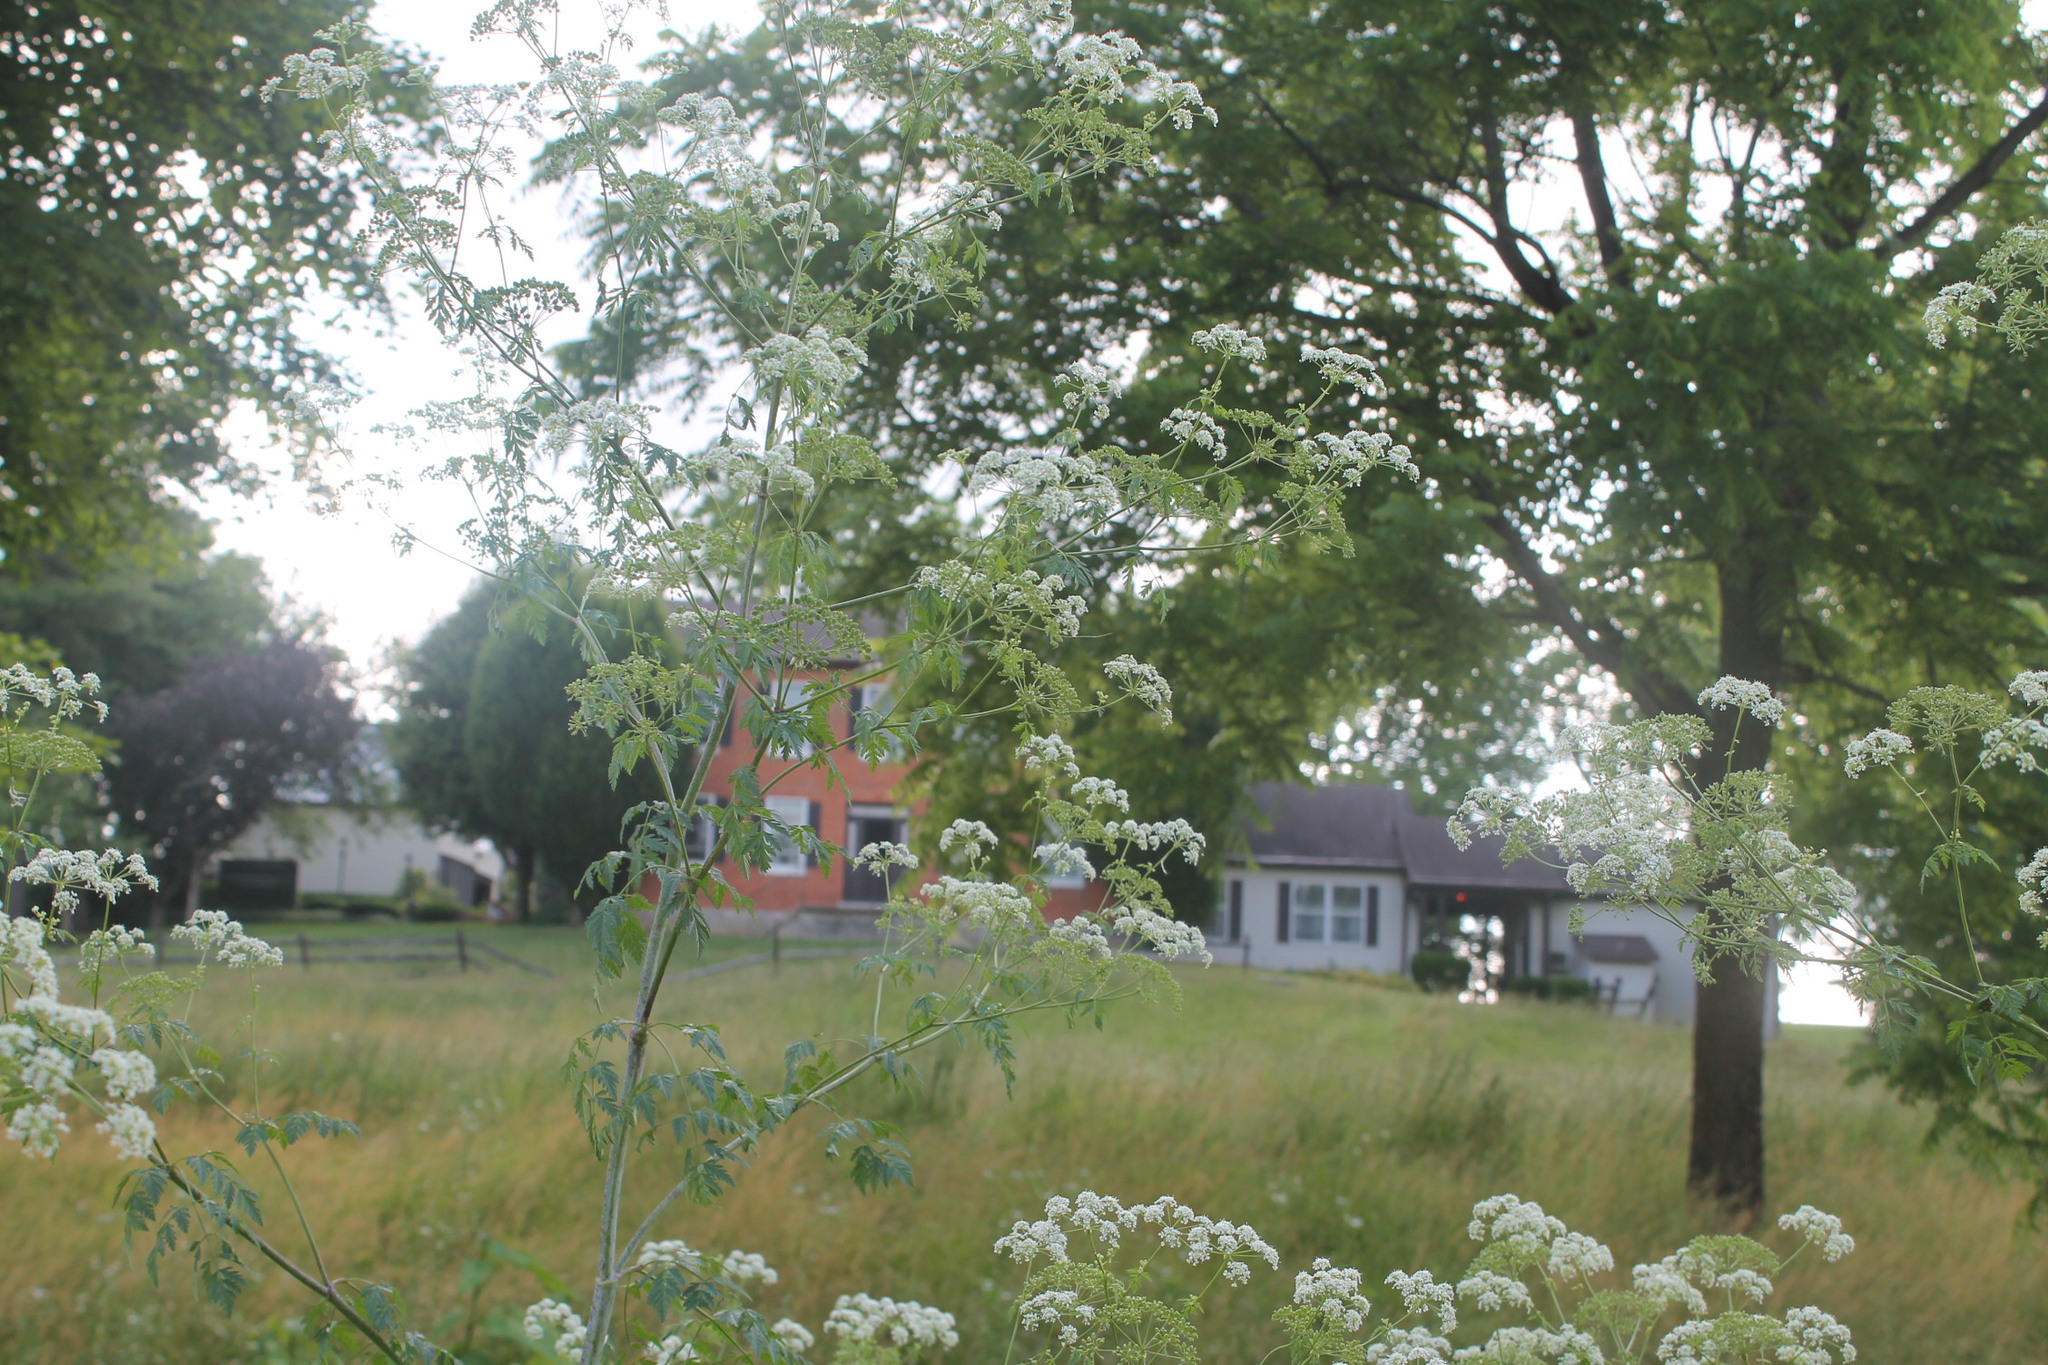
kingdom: Plantae
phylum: Tracheophyta
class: Magnoliopsida
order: Apiales
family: Apiaceae
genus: Conium
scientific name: Conium maculatum
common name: Hemlock
